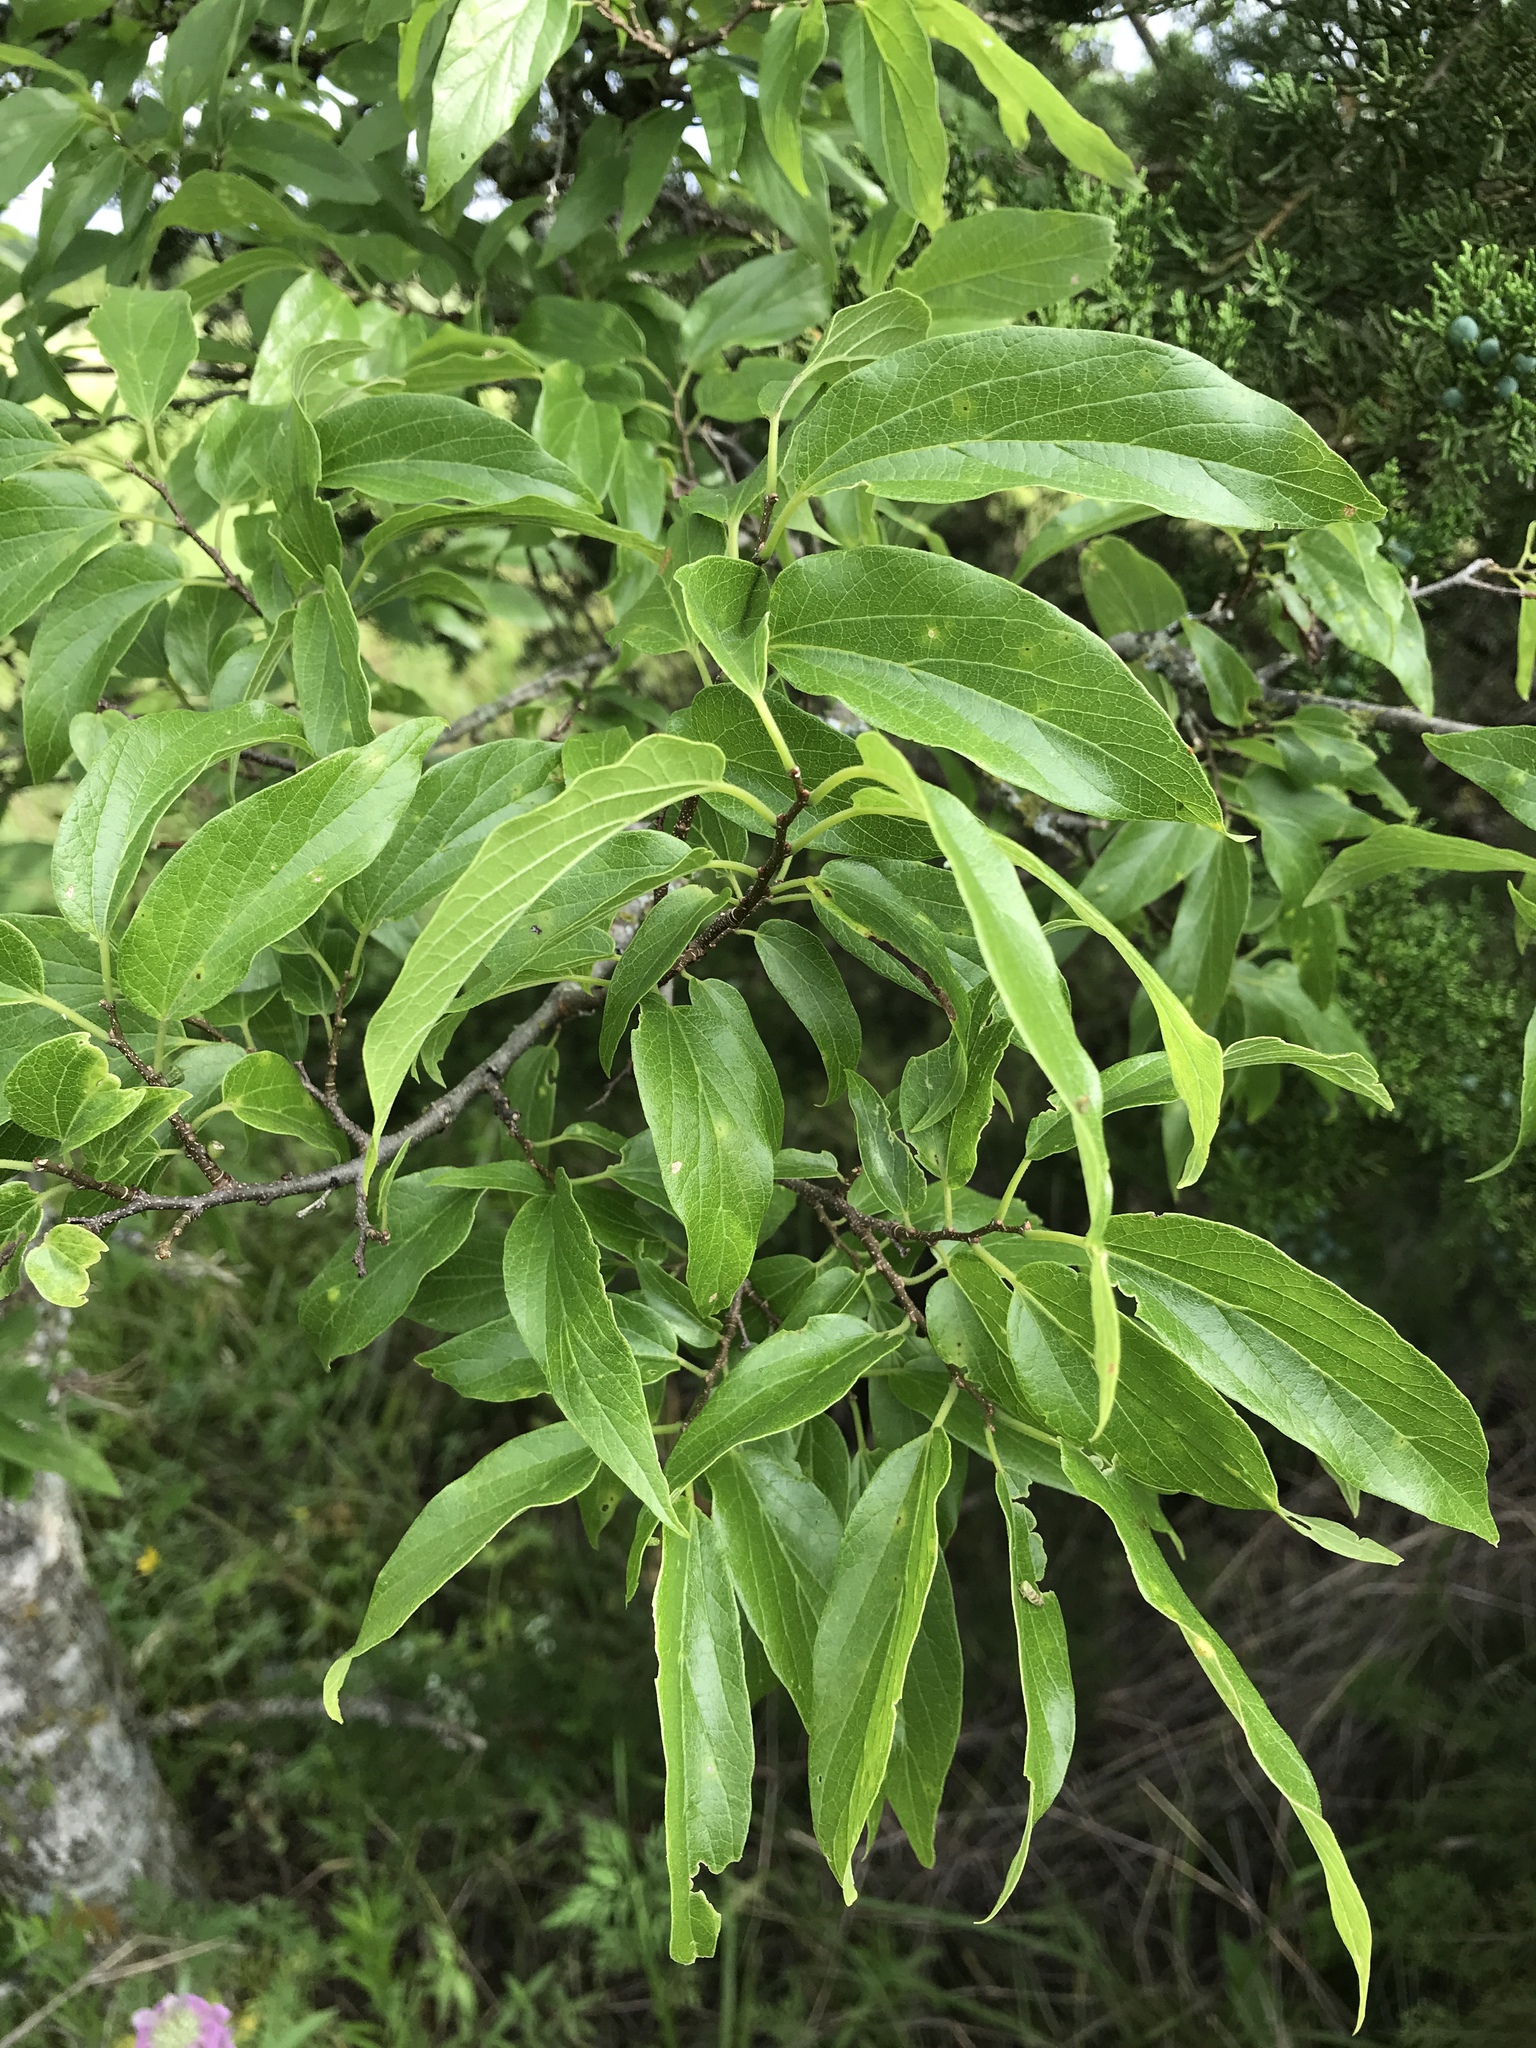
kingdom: Plantae
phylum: Tracheophyta
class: Magnoliopsida
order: Rosales
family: Cannabaceae
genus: Celtis
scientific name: Celtis laevigata
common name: Sugarberry
